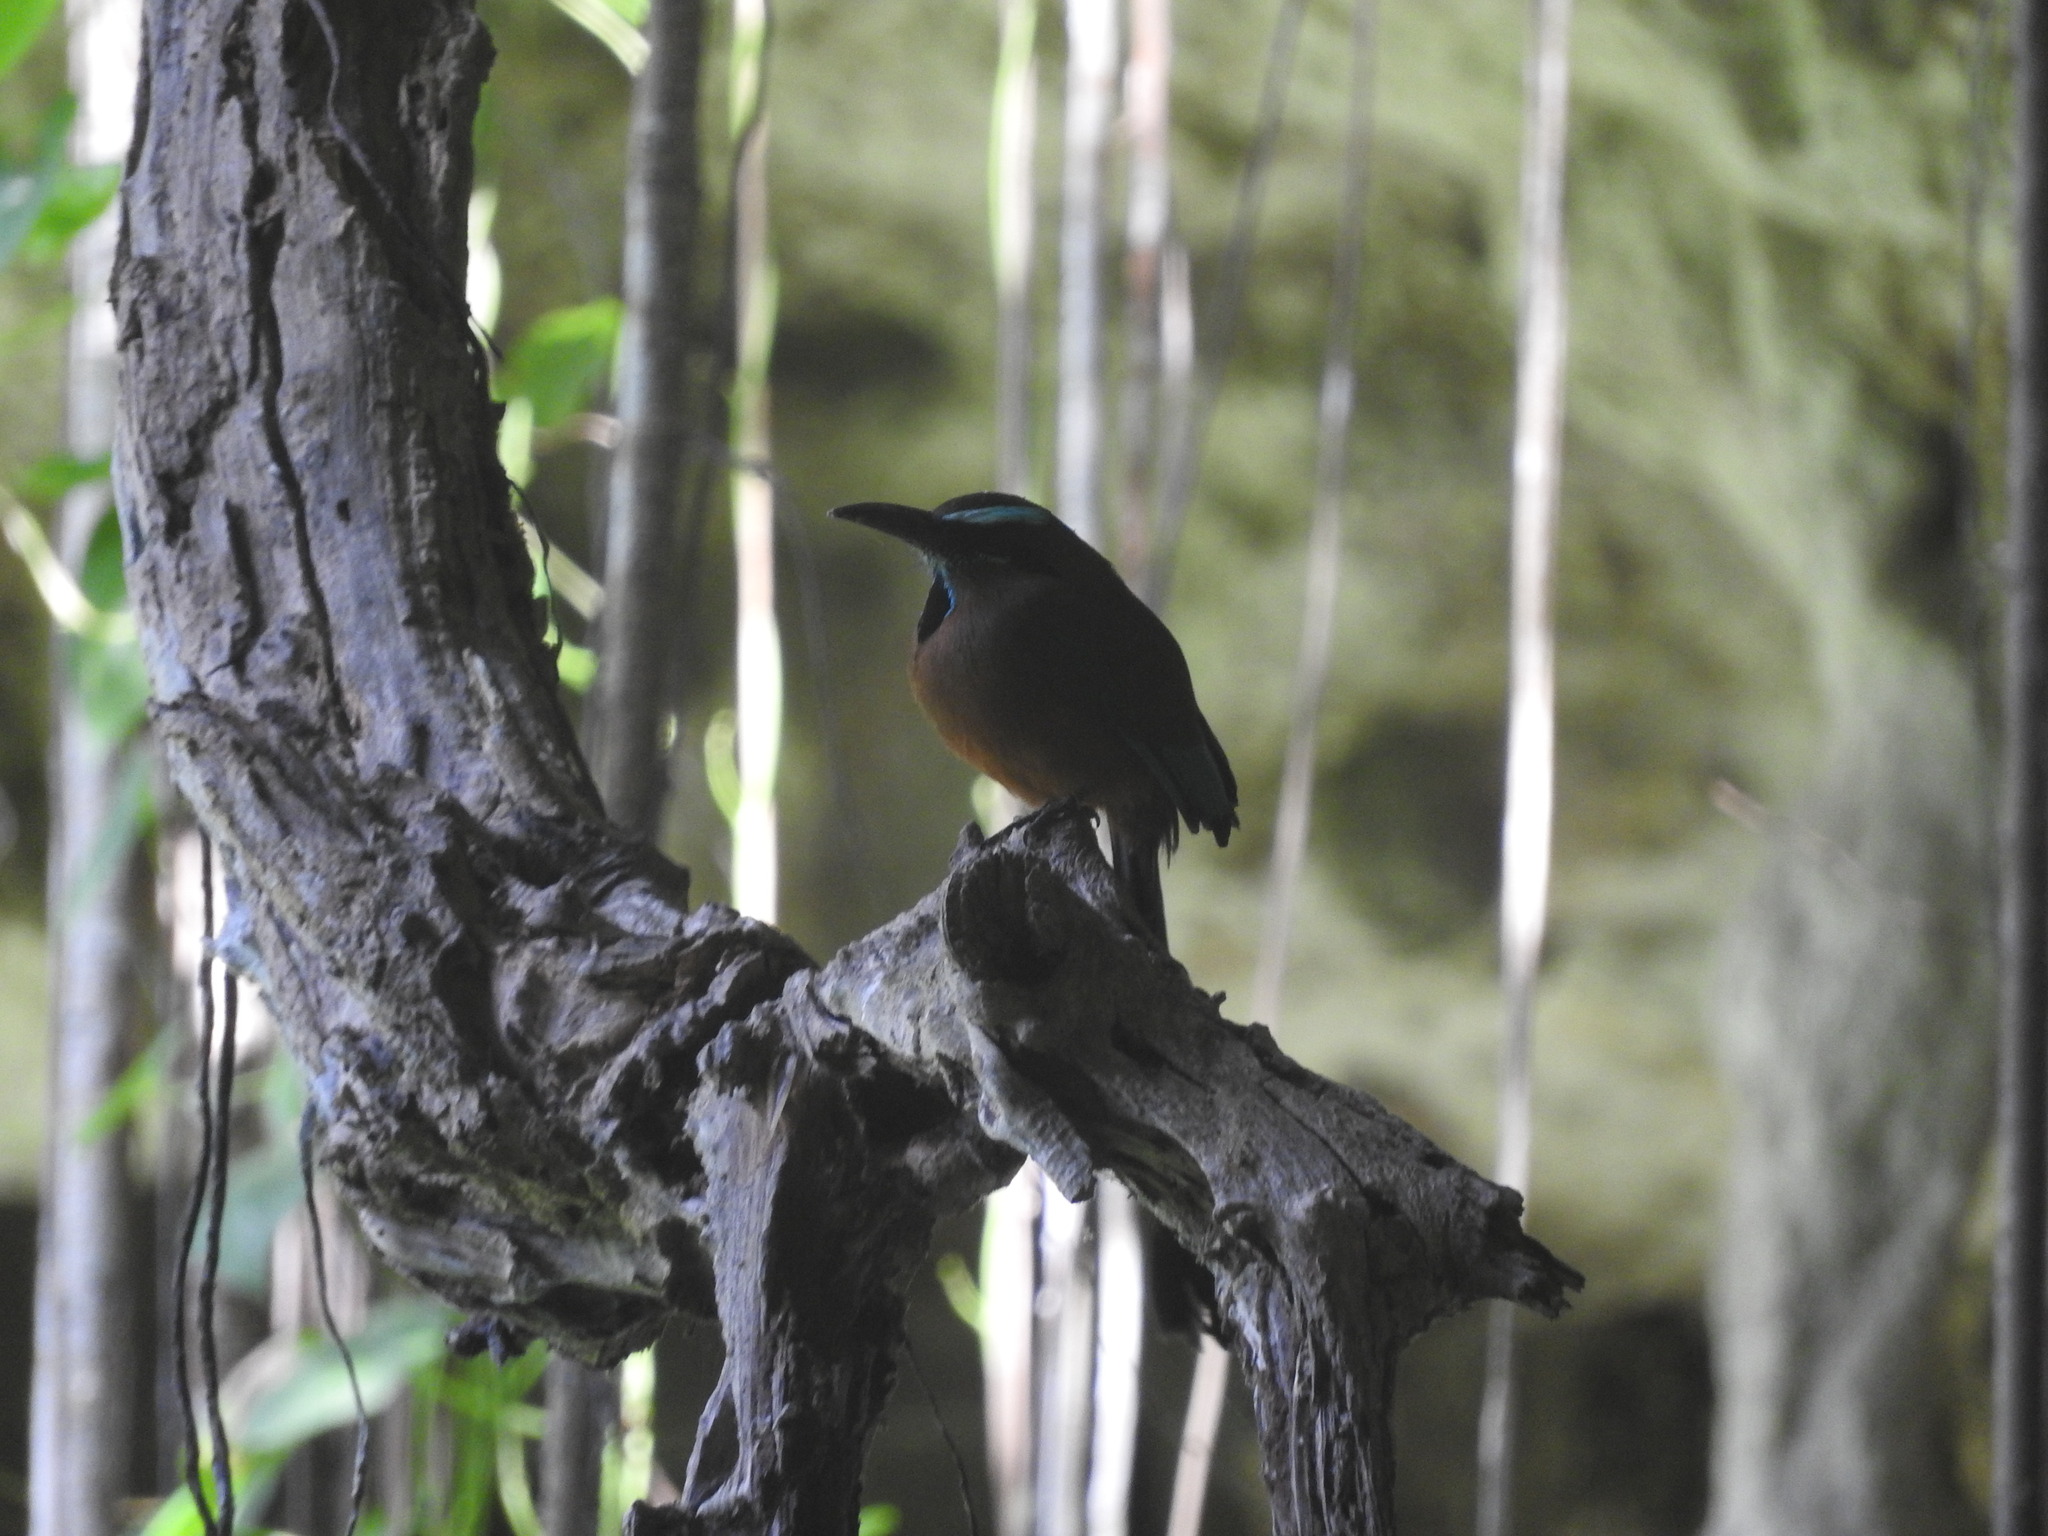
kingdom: Animalia
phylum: Chordata
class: Aves
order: Coraciiformes
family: Momotidae
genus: Eumomota
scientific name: Eumomota superciliosa
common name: Turquoise-browed motmot
